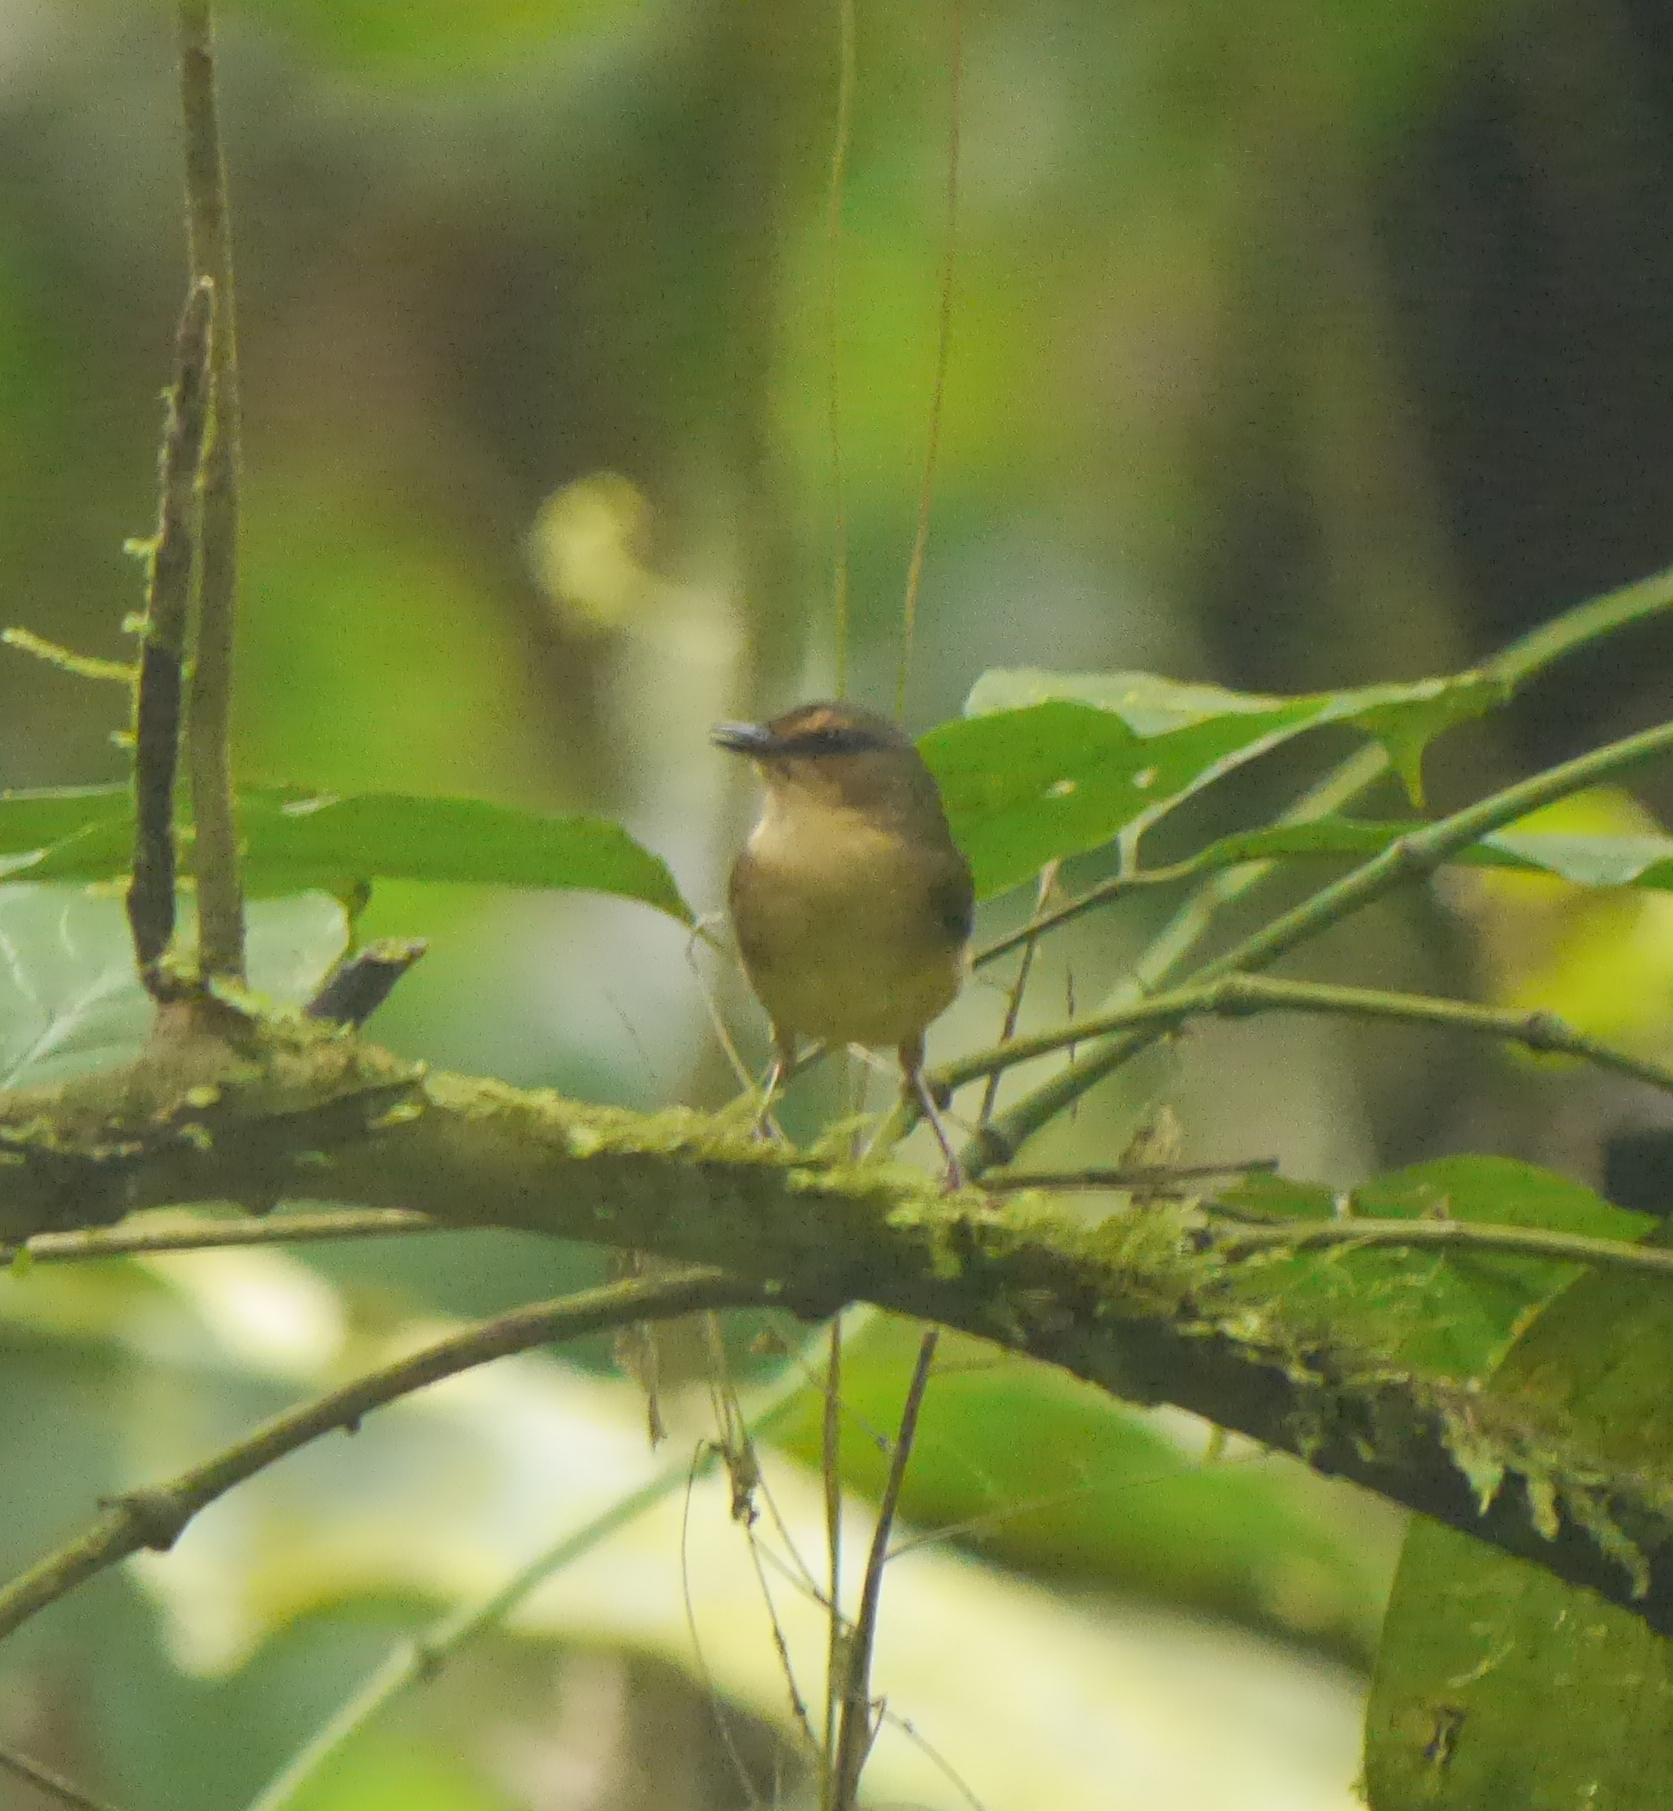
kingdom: Animalia
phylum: Chordata
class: Aves
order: Passeriformes
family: Parulidae
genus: Myiothlypis
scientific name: Myiothlypis fulvicauda
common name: Buff-rumped warbler
